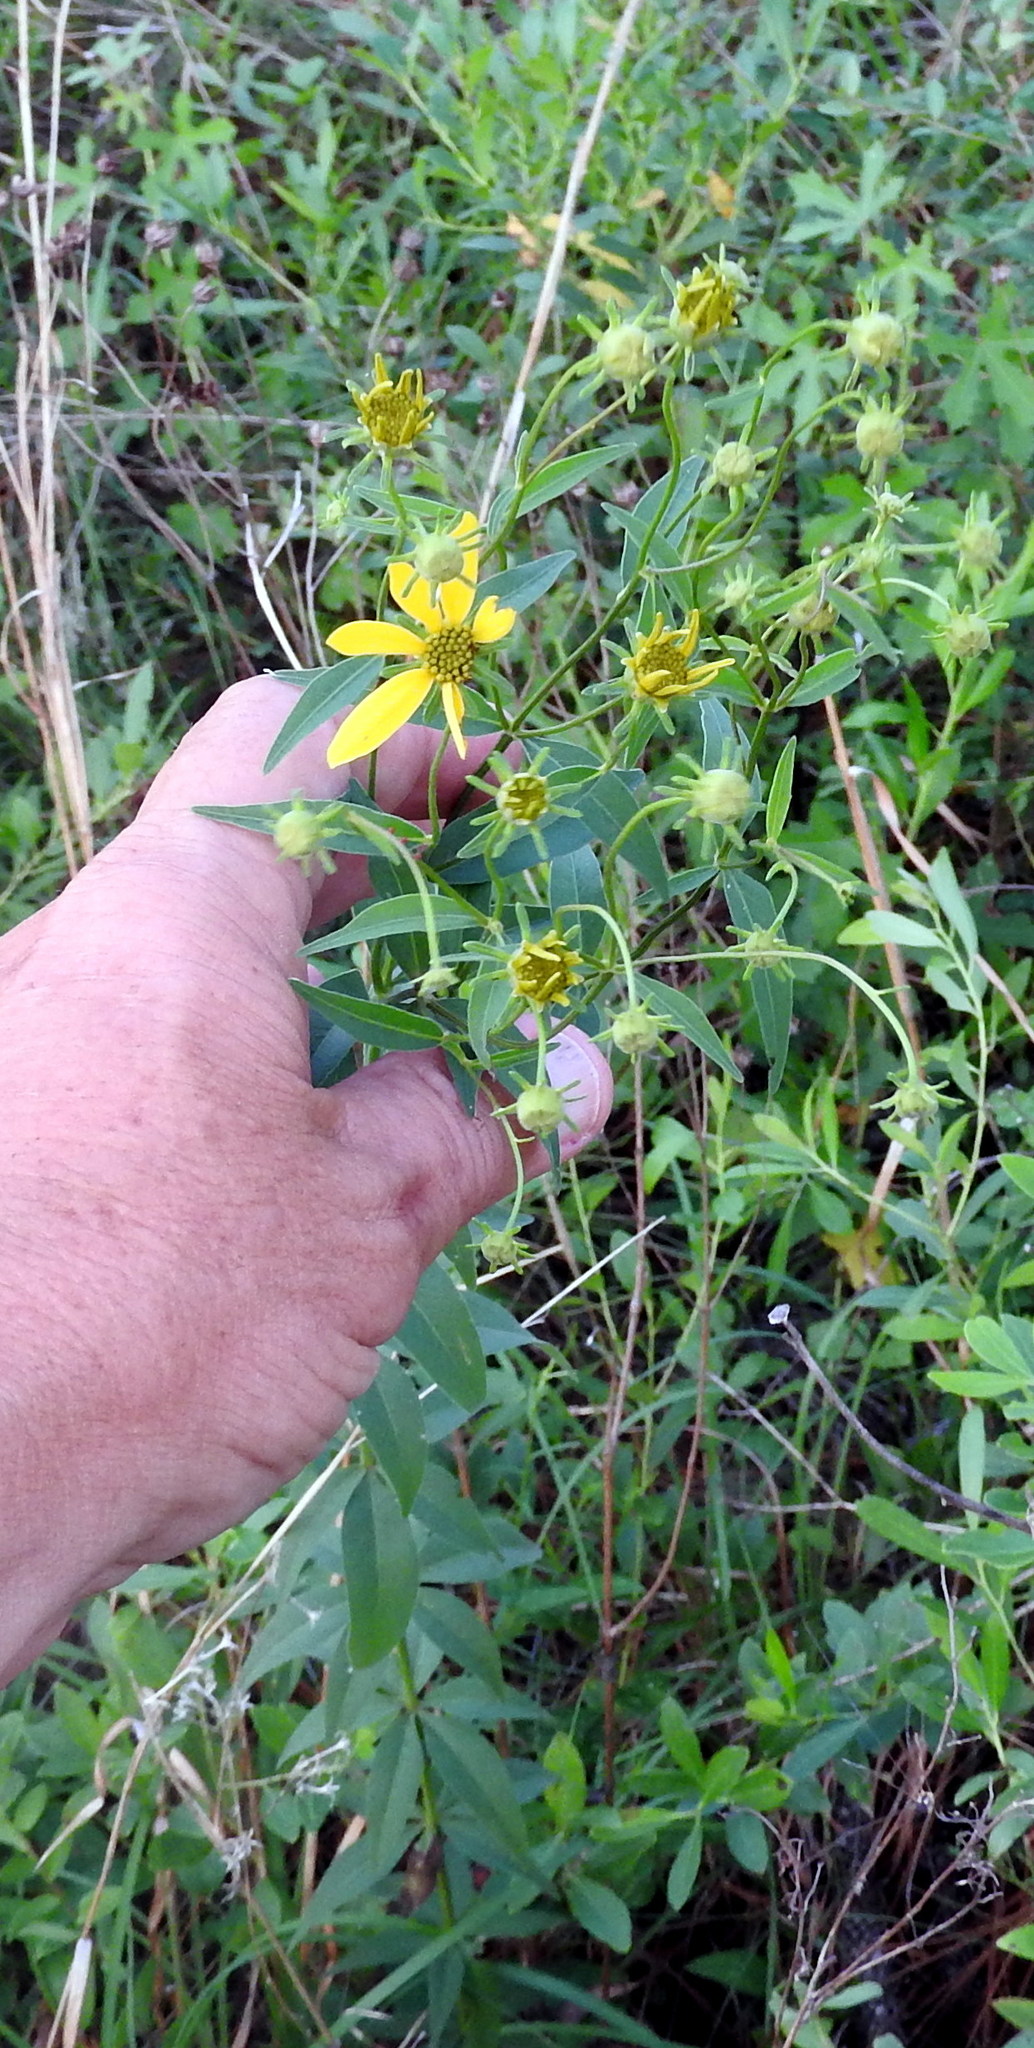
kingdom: Plantae
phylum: Tracheophyta
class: Magnoliopsida
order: Asterales
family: Asteraceae
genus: Coreopsis
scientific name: Coreopsis major
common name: Forest tickseed
